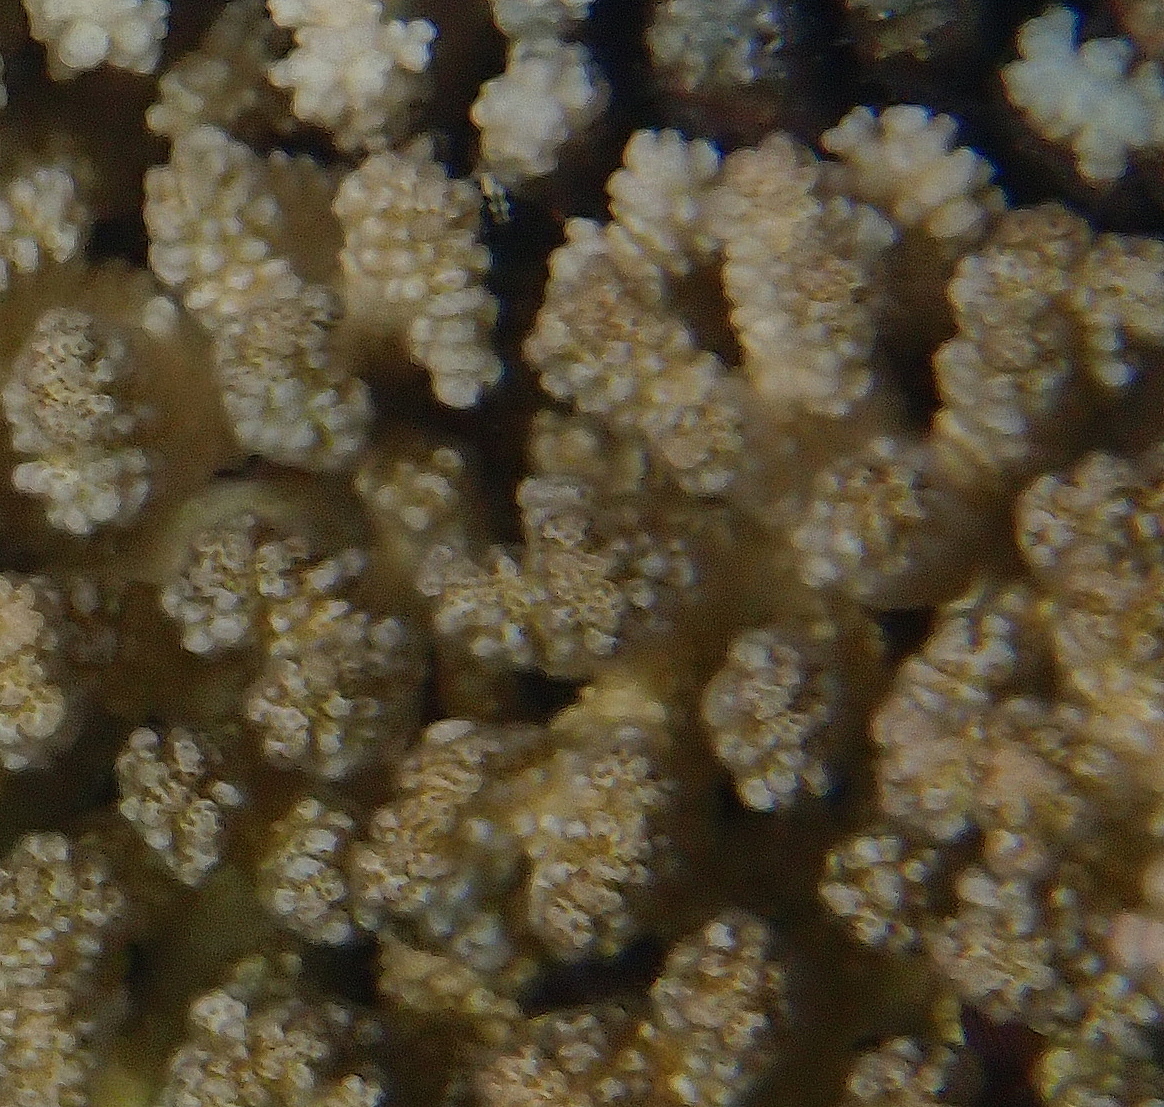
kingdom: Animalia
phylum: Cnidaria
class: Anthozoa
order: Scleractinia
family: Pocilloporidae
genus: Pocillopora
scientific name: Pocillopora verrucosa
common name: Cauliflower coral
